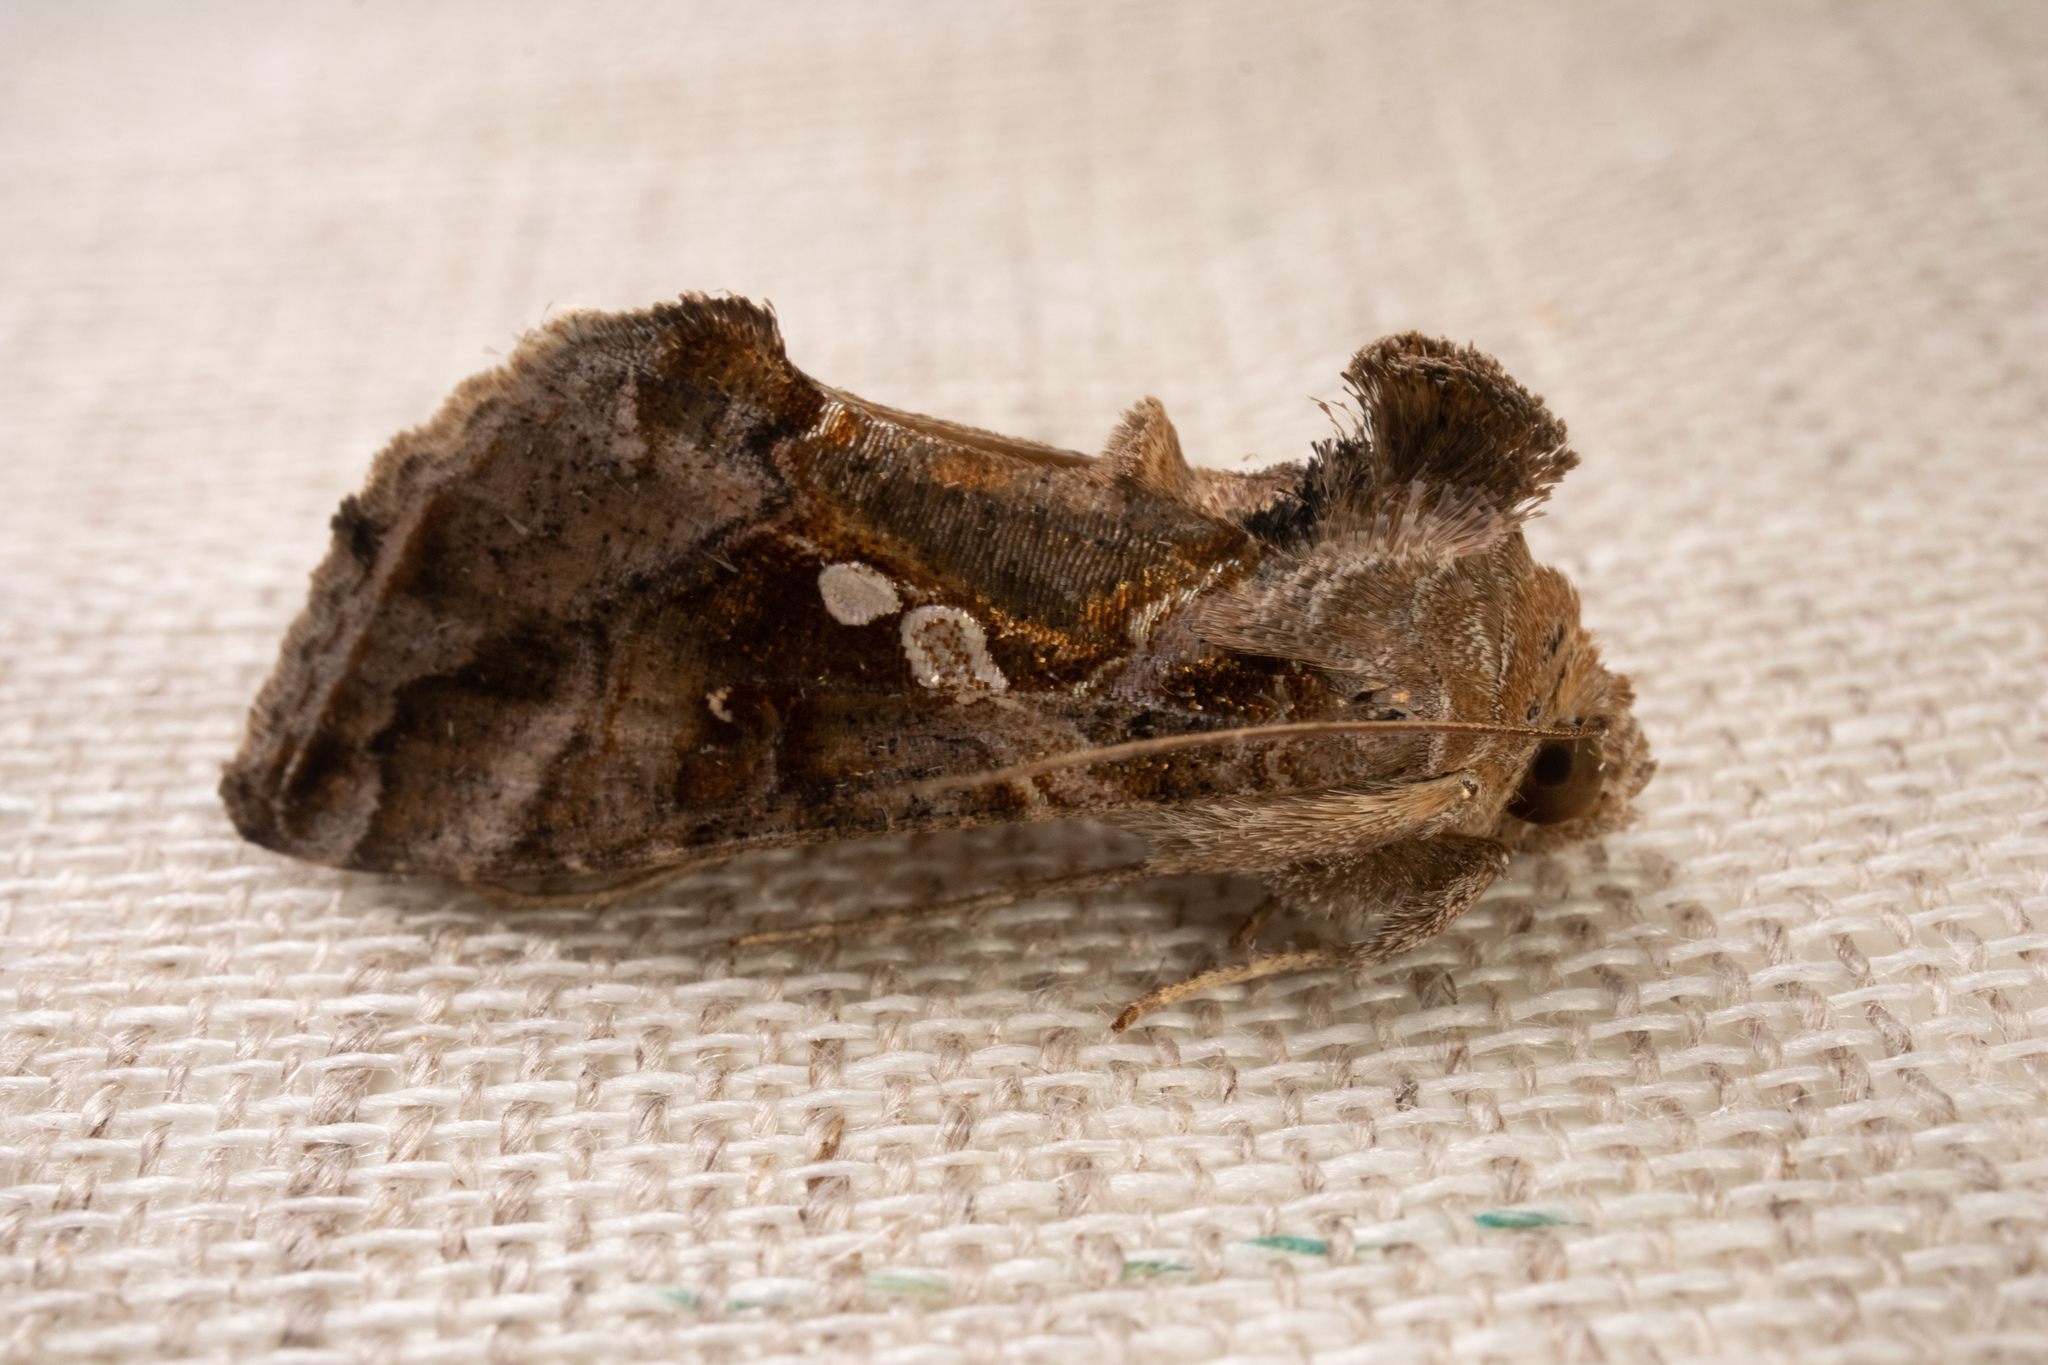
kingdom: Animalia
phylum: Arthropoda
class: Insecta
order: Lepidoptera
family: Noctuidae
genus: Chrysodeixis
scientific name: Chrysodeixis includens
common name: Cutworm moth
